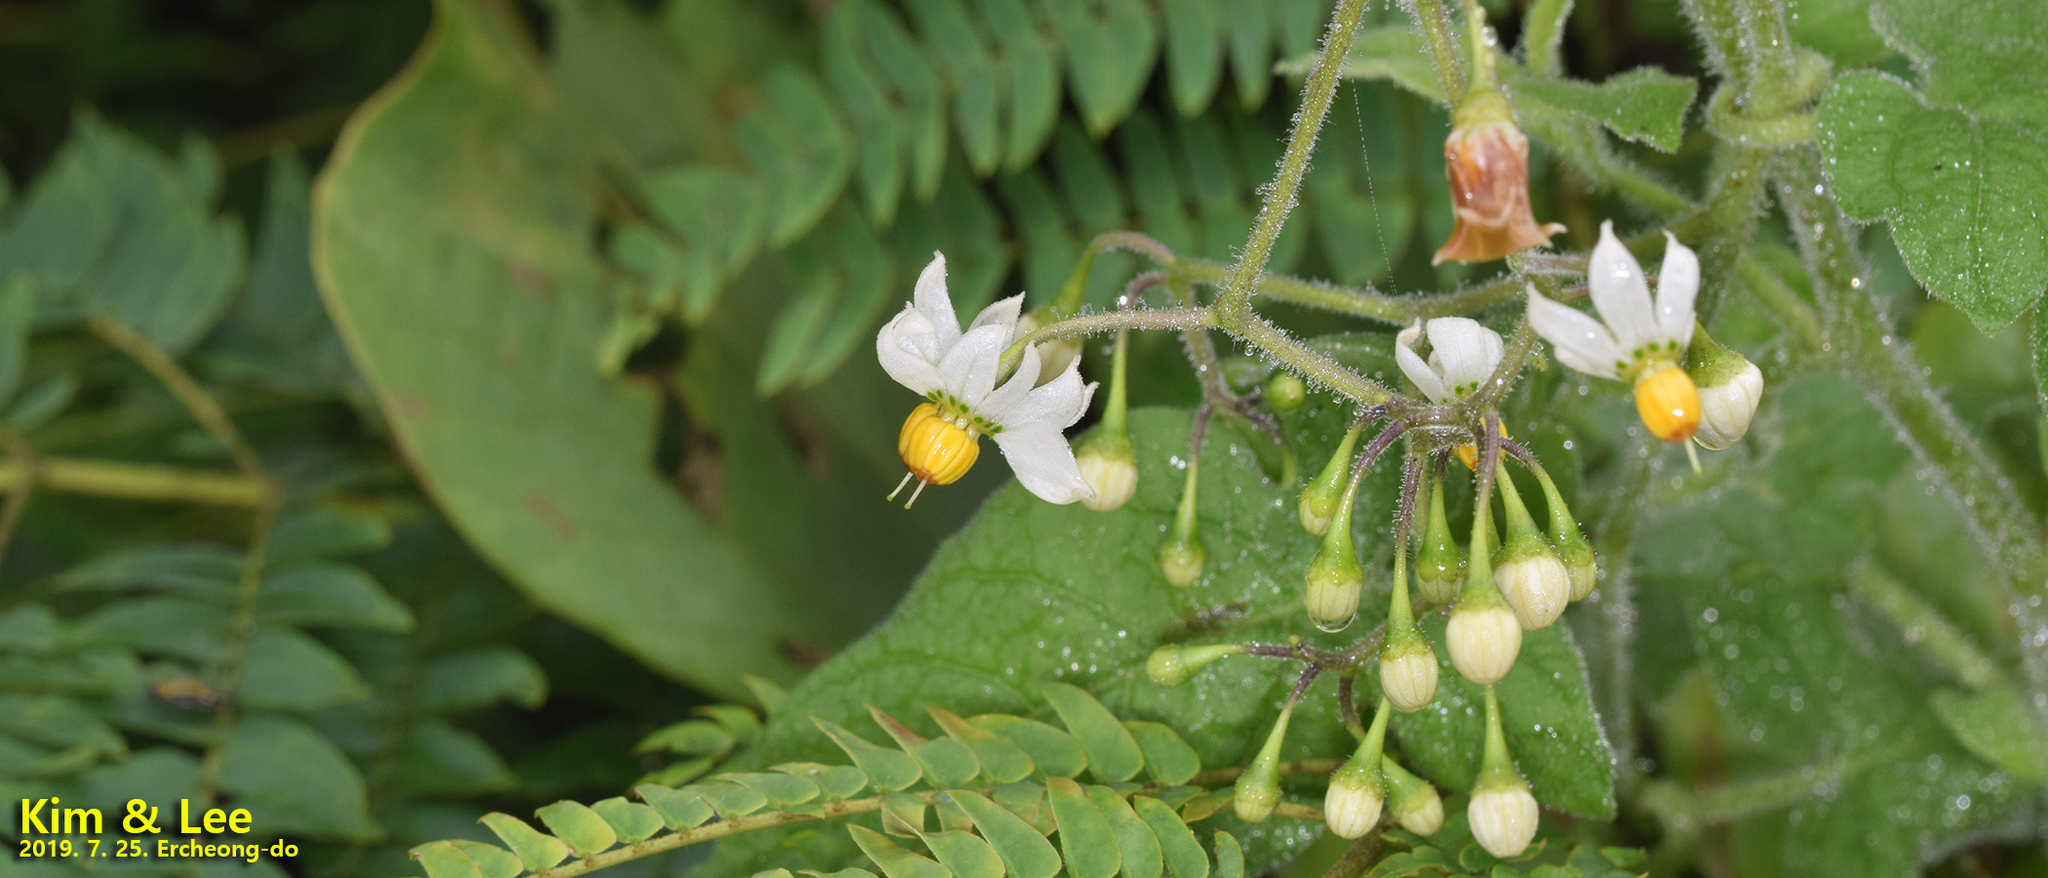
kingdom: Plantae
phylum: Tracheophyta
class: Magnoliopsida
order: Solanales
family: Solanaceae
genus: Solanum
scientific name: Solanum lyratum
